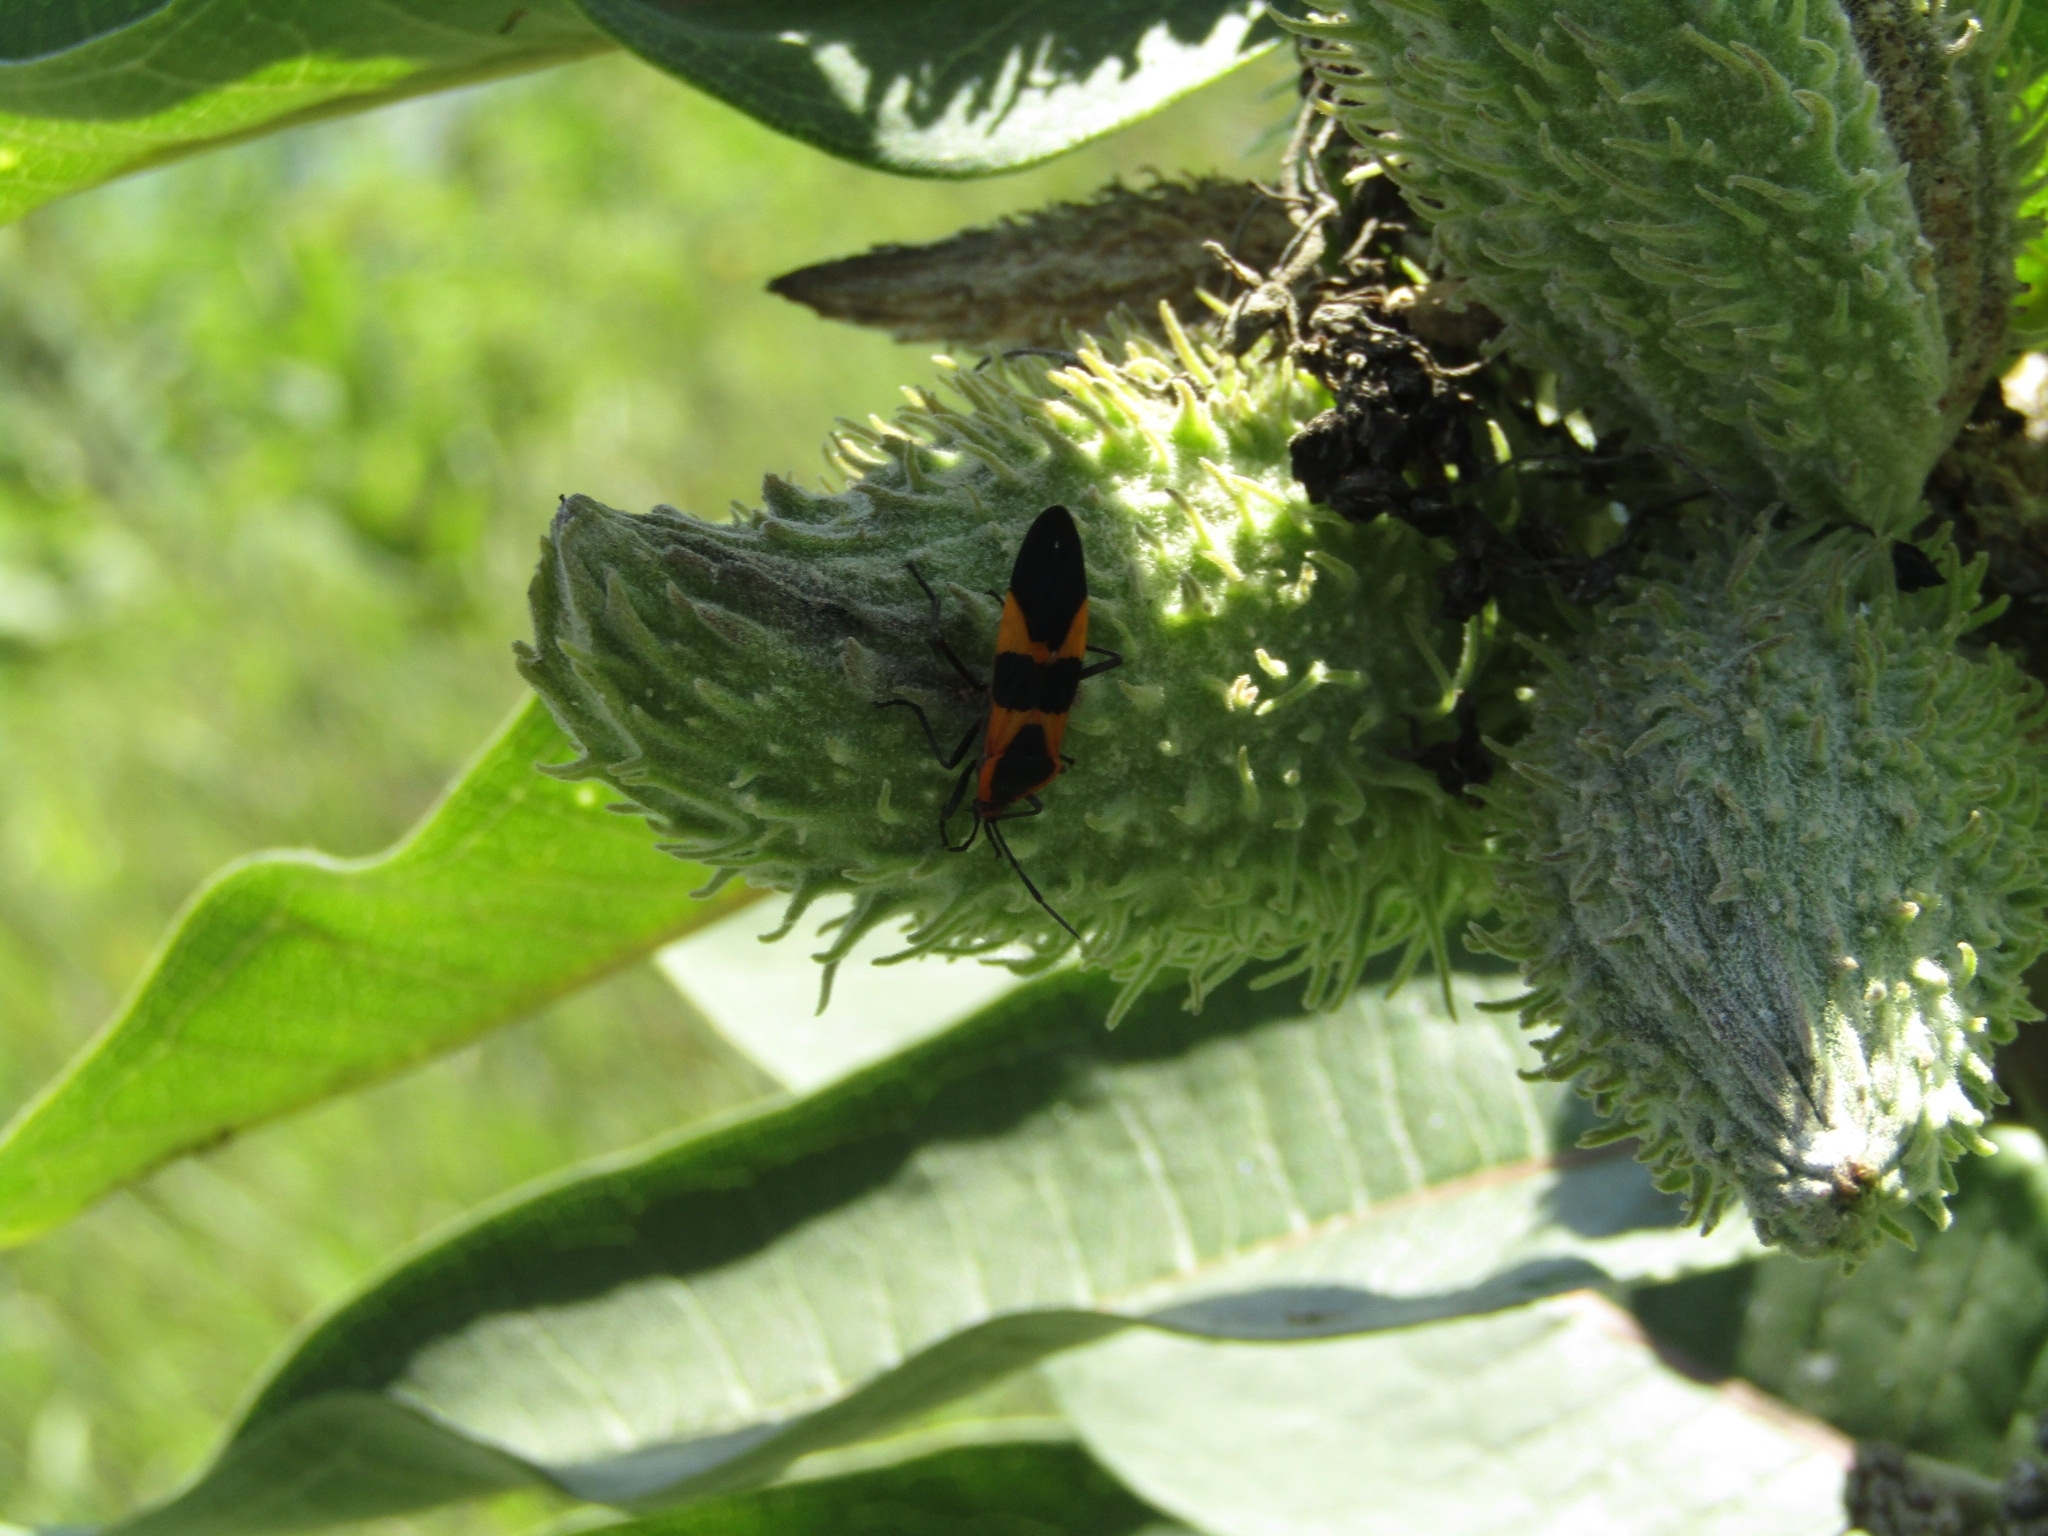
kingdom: Animalia
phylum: Arthropoda
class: Insecta
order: Hemiptera
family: Lygaeidae
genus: Oncopeltus
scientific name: Oncopeltus fasciatus
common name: Large milkweed bug
